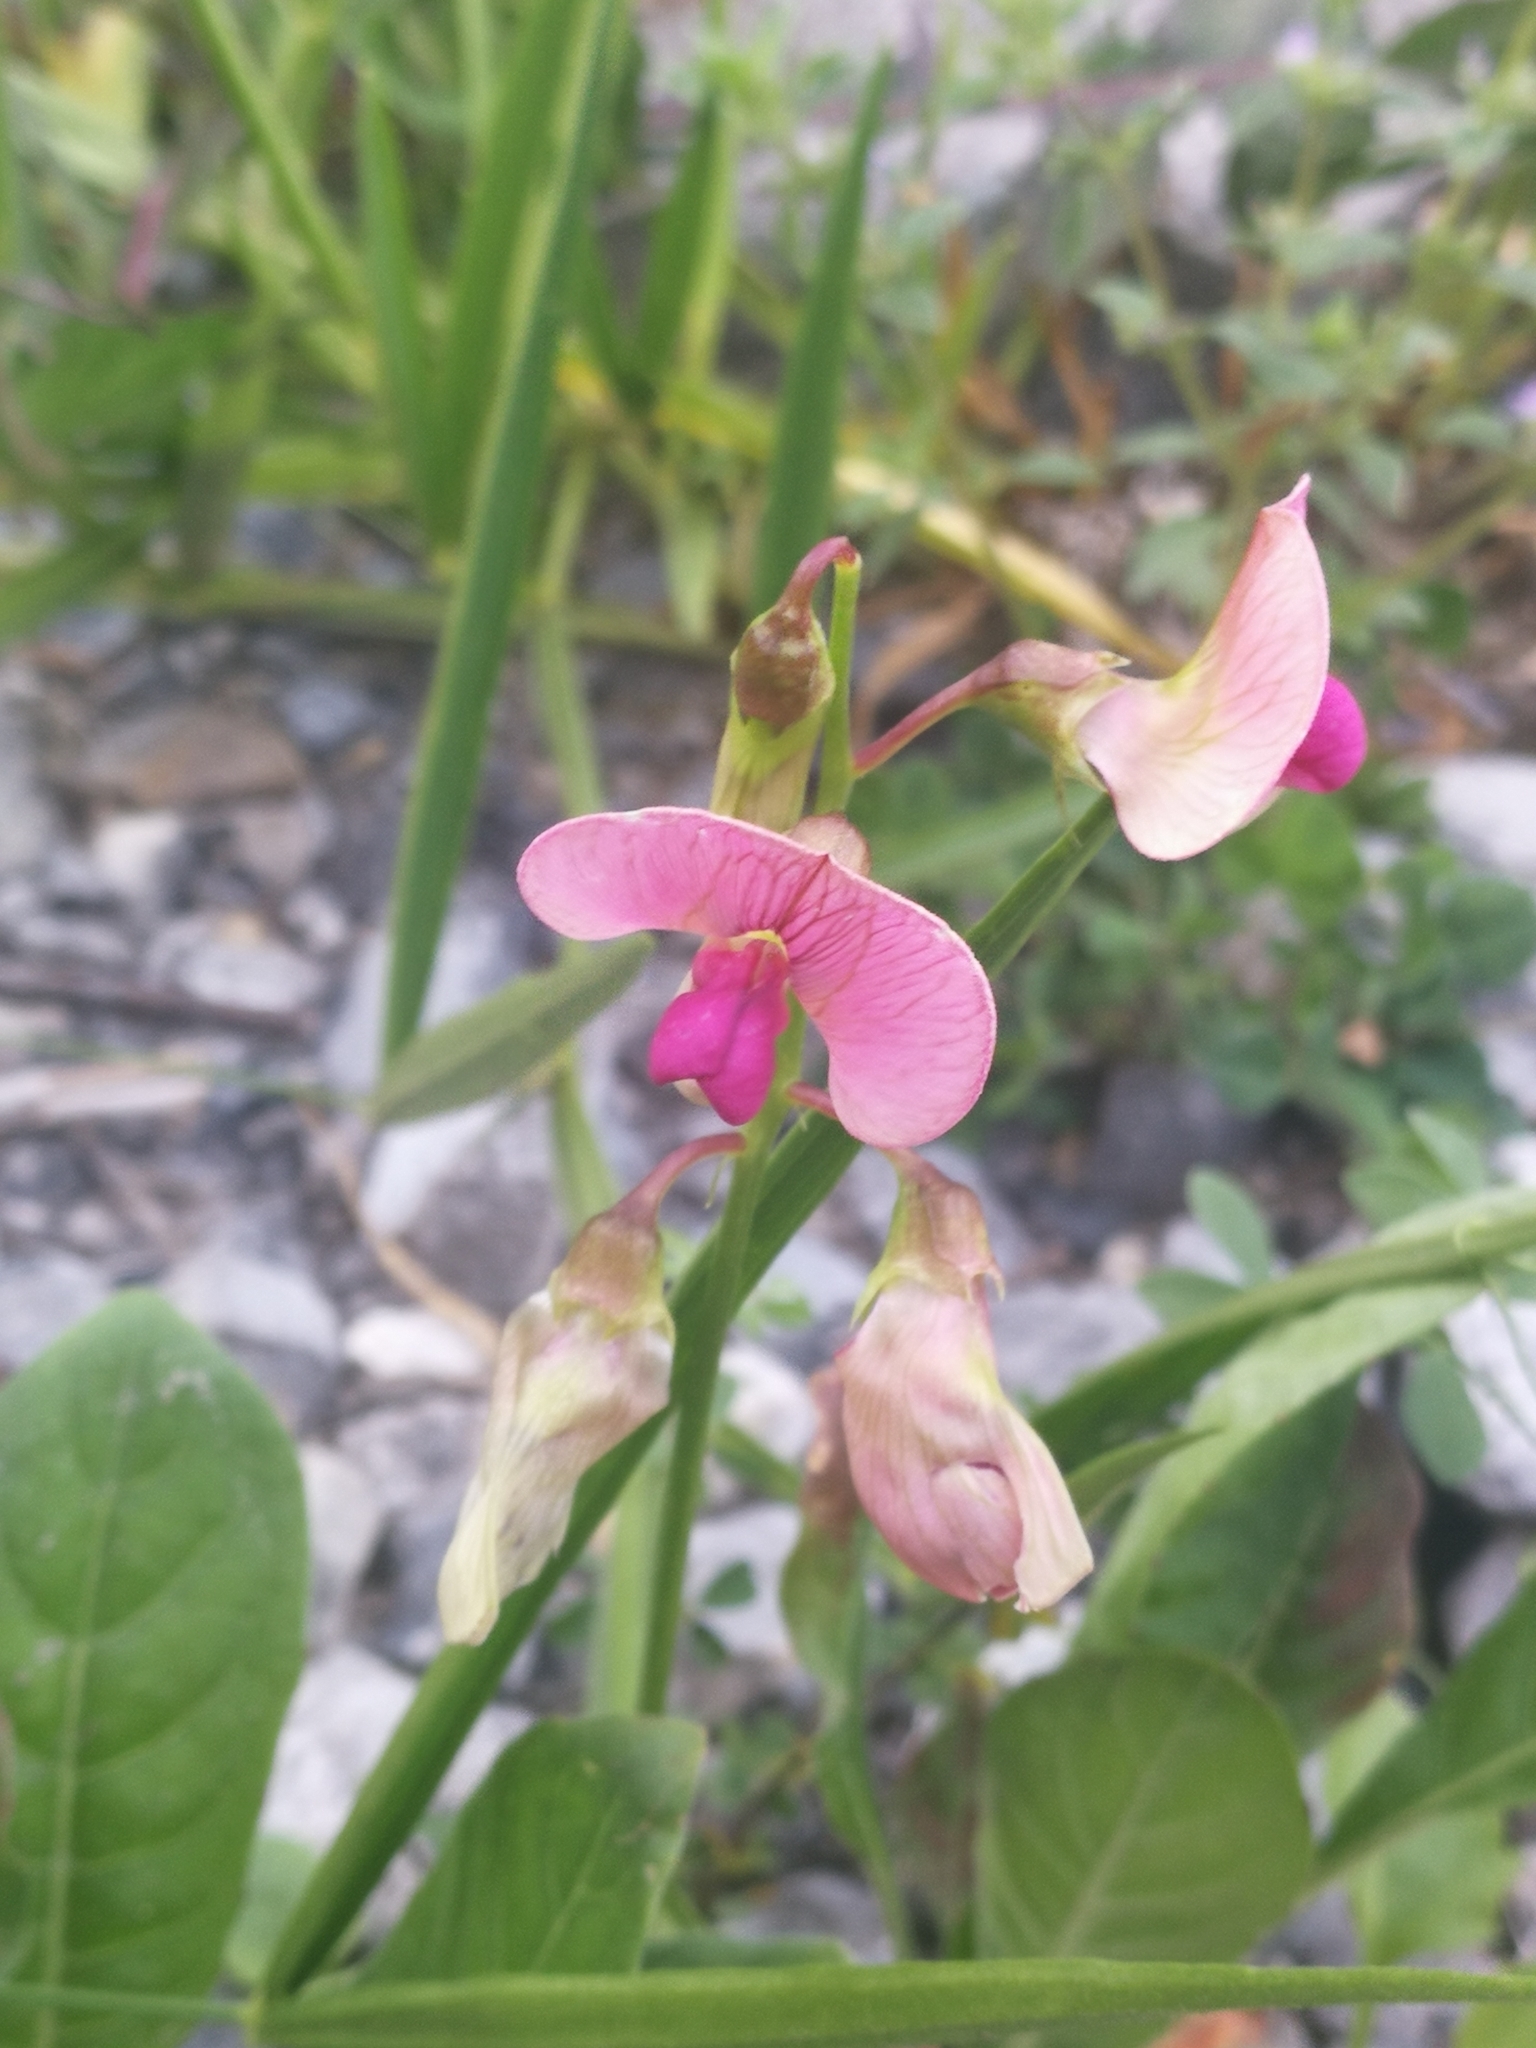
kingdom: Plantae
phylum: Tracheophyta
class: Magnoliopsida
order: Fabales
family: Fabaceae
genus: Lathyrus
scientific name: Lathyrus sylvestris
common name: Flat pea
